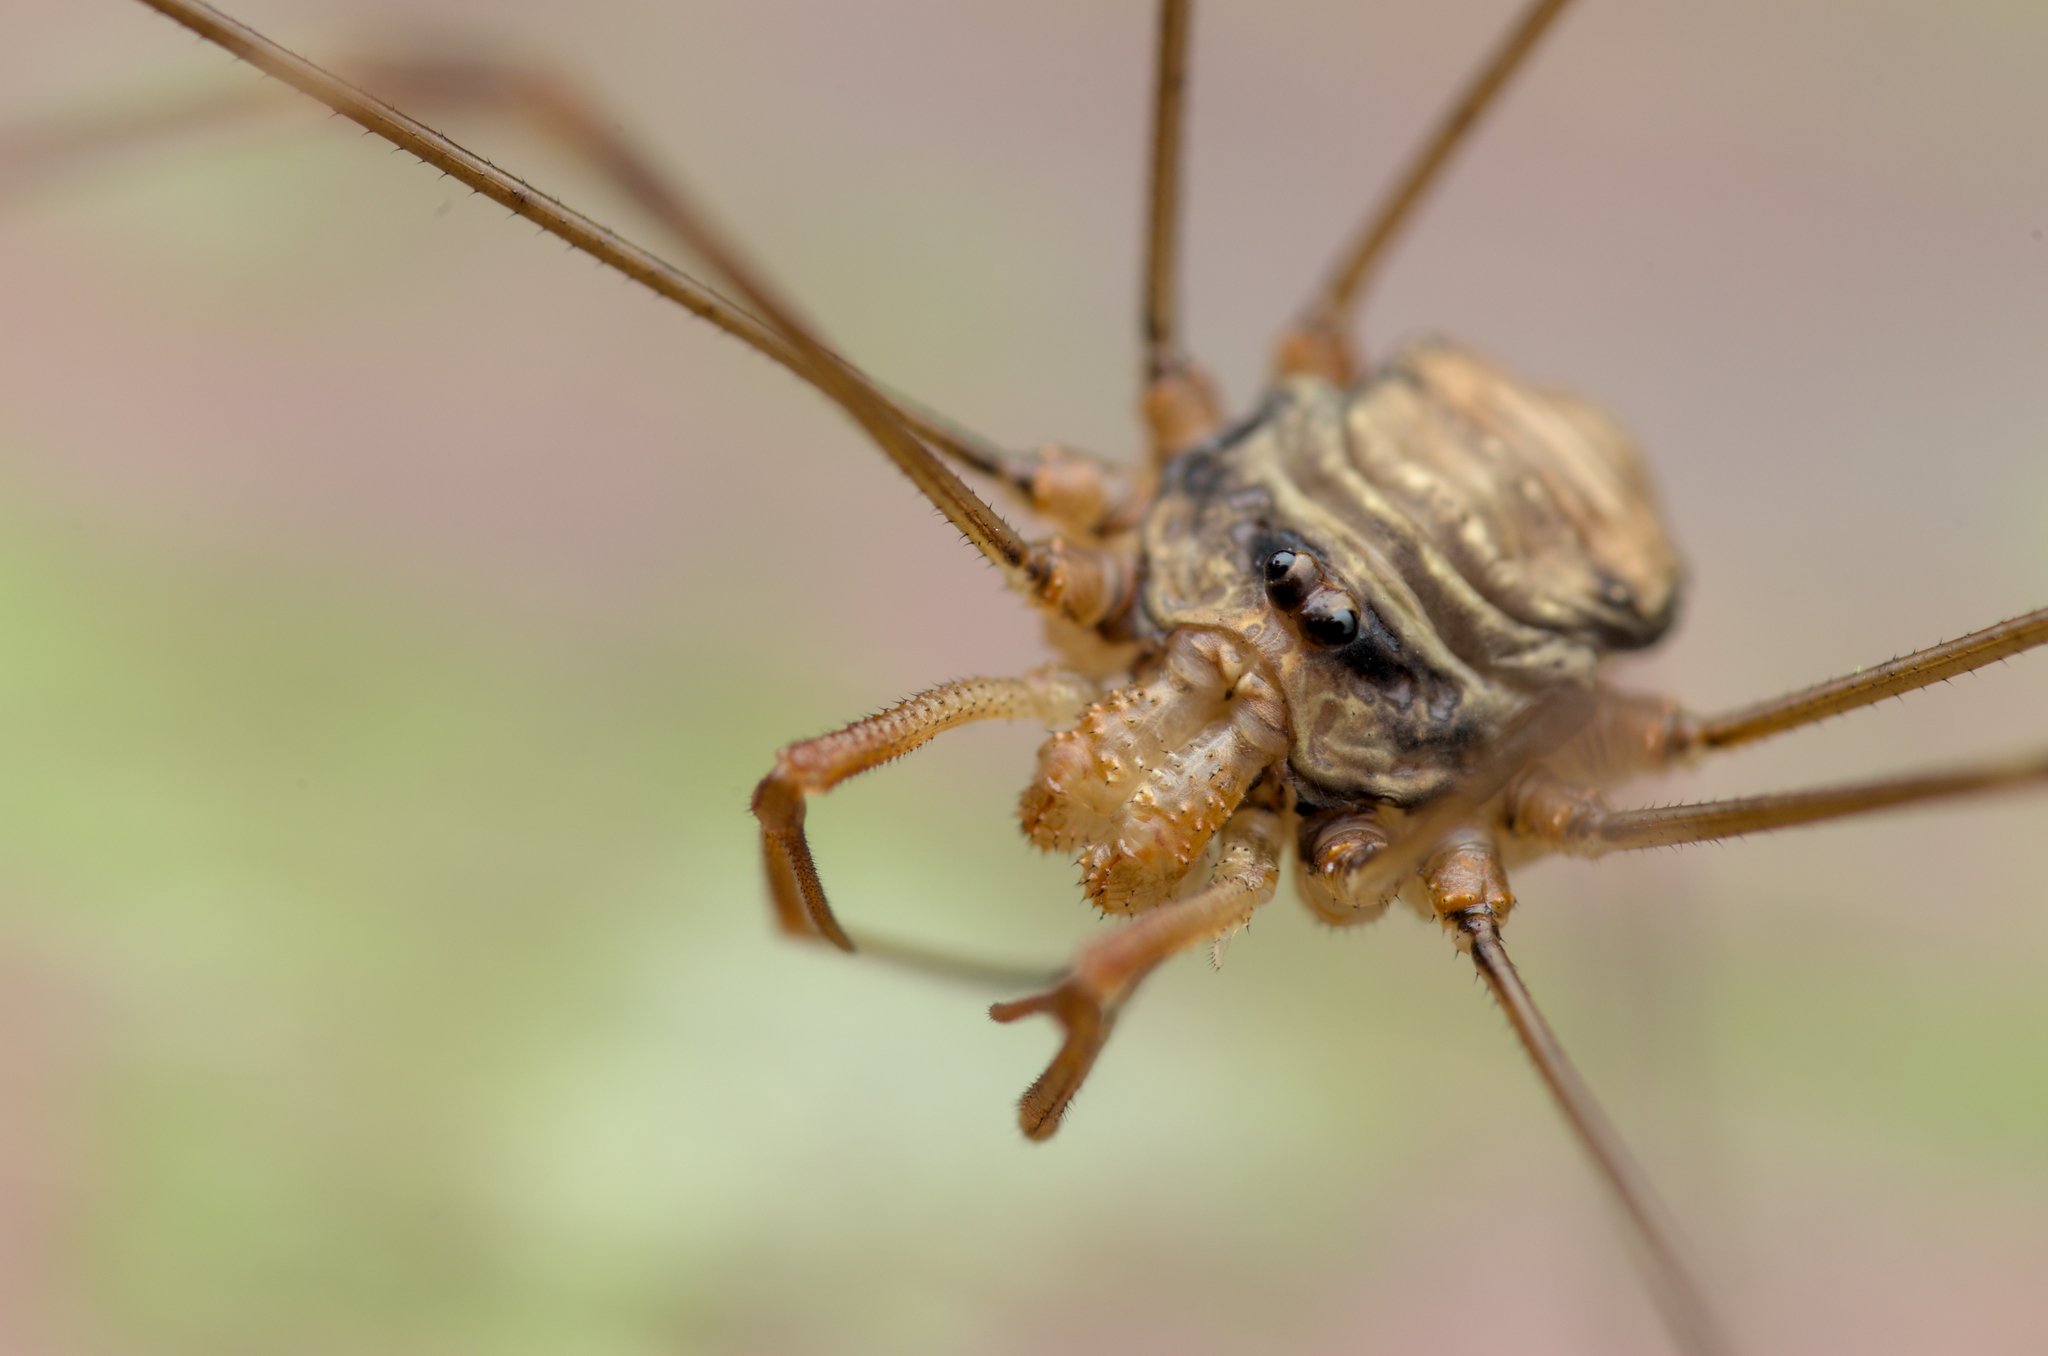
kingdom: Animalia
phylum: Arthropoda
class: Arachnida
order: Opiliones
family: Phalangiidae
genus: Dicranopalpus
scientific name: Dicranopalpus ramosus
